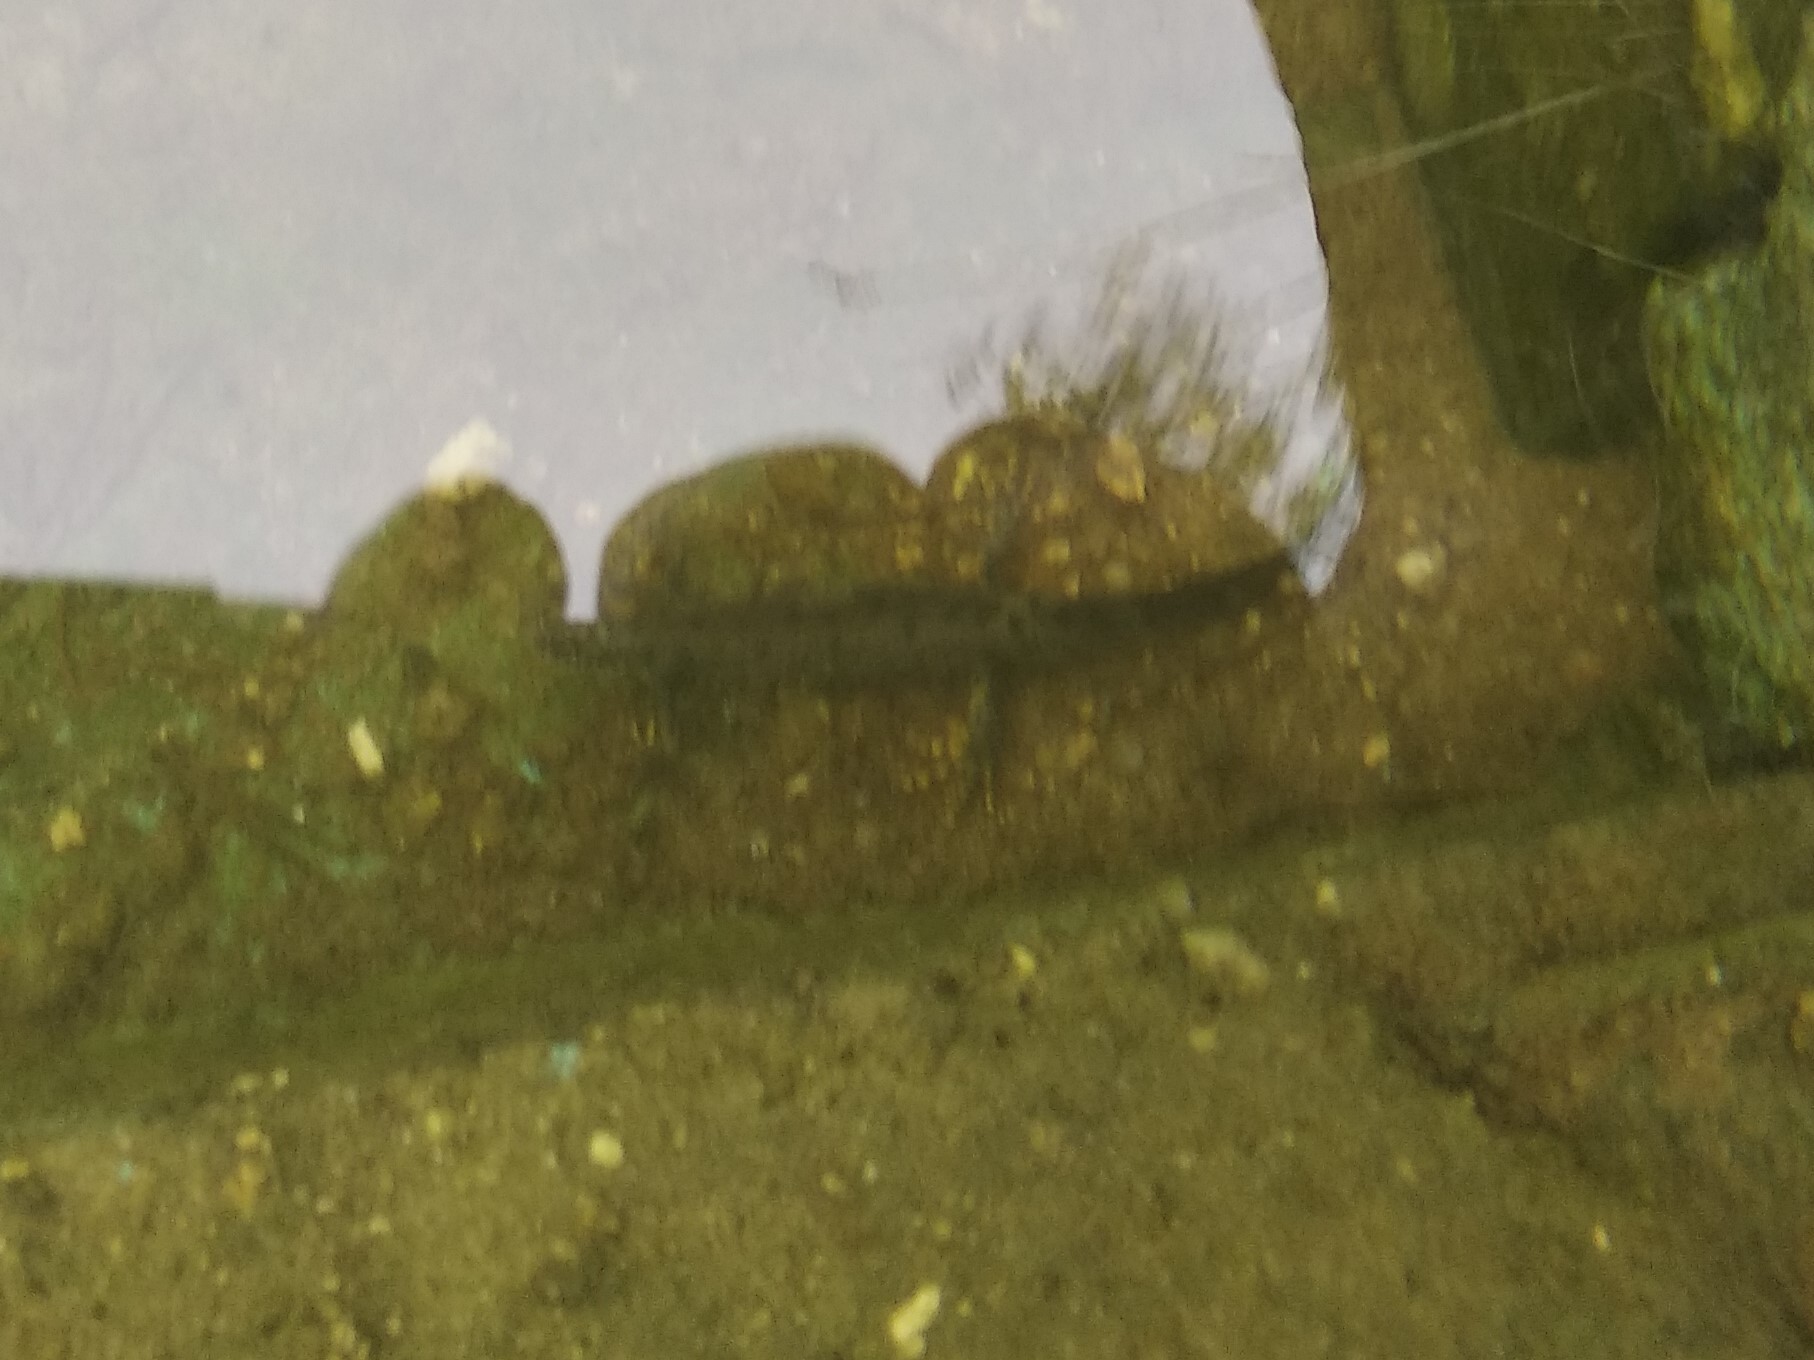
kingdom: Animalia
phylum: Chordata
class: Amphibia
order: Caudata
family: Salamandridae
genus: Triturus
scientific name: Triturus cristatus
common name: Crested newt
